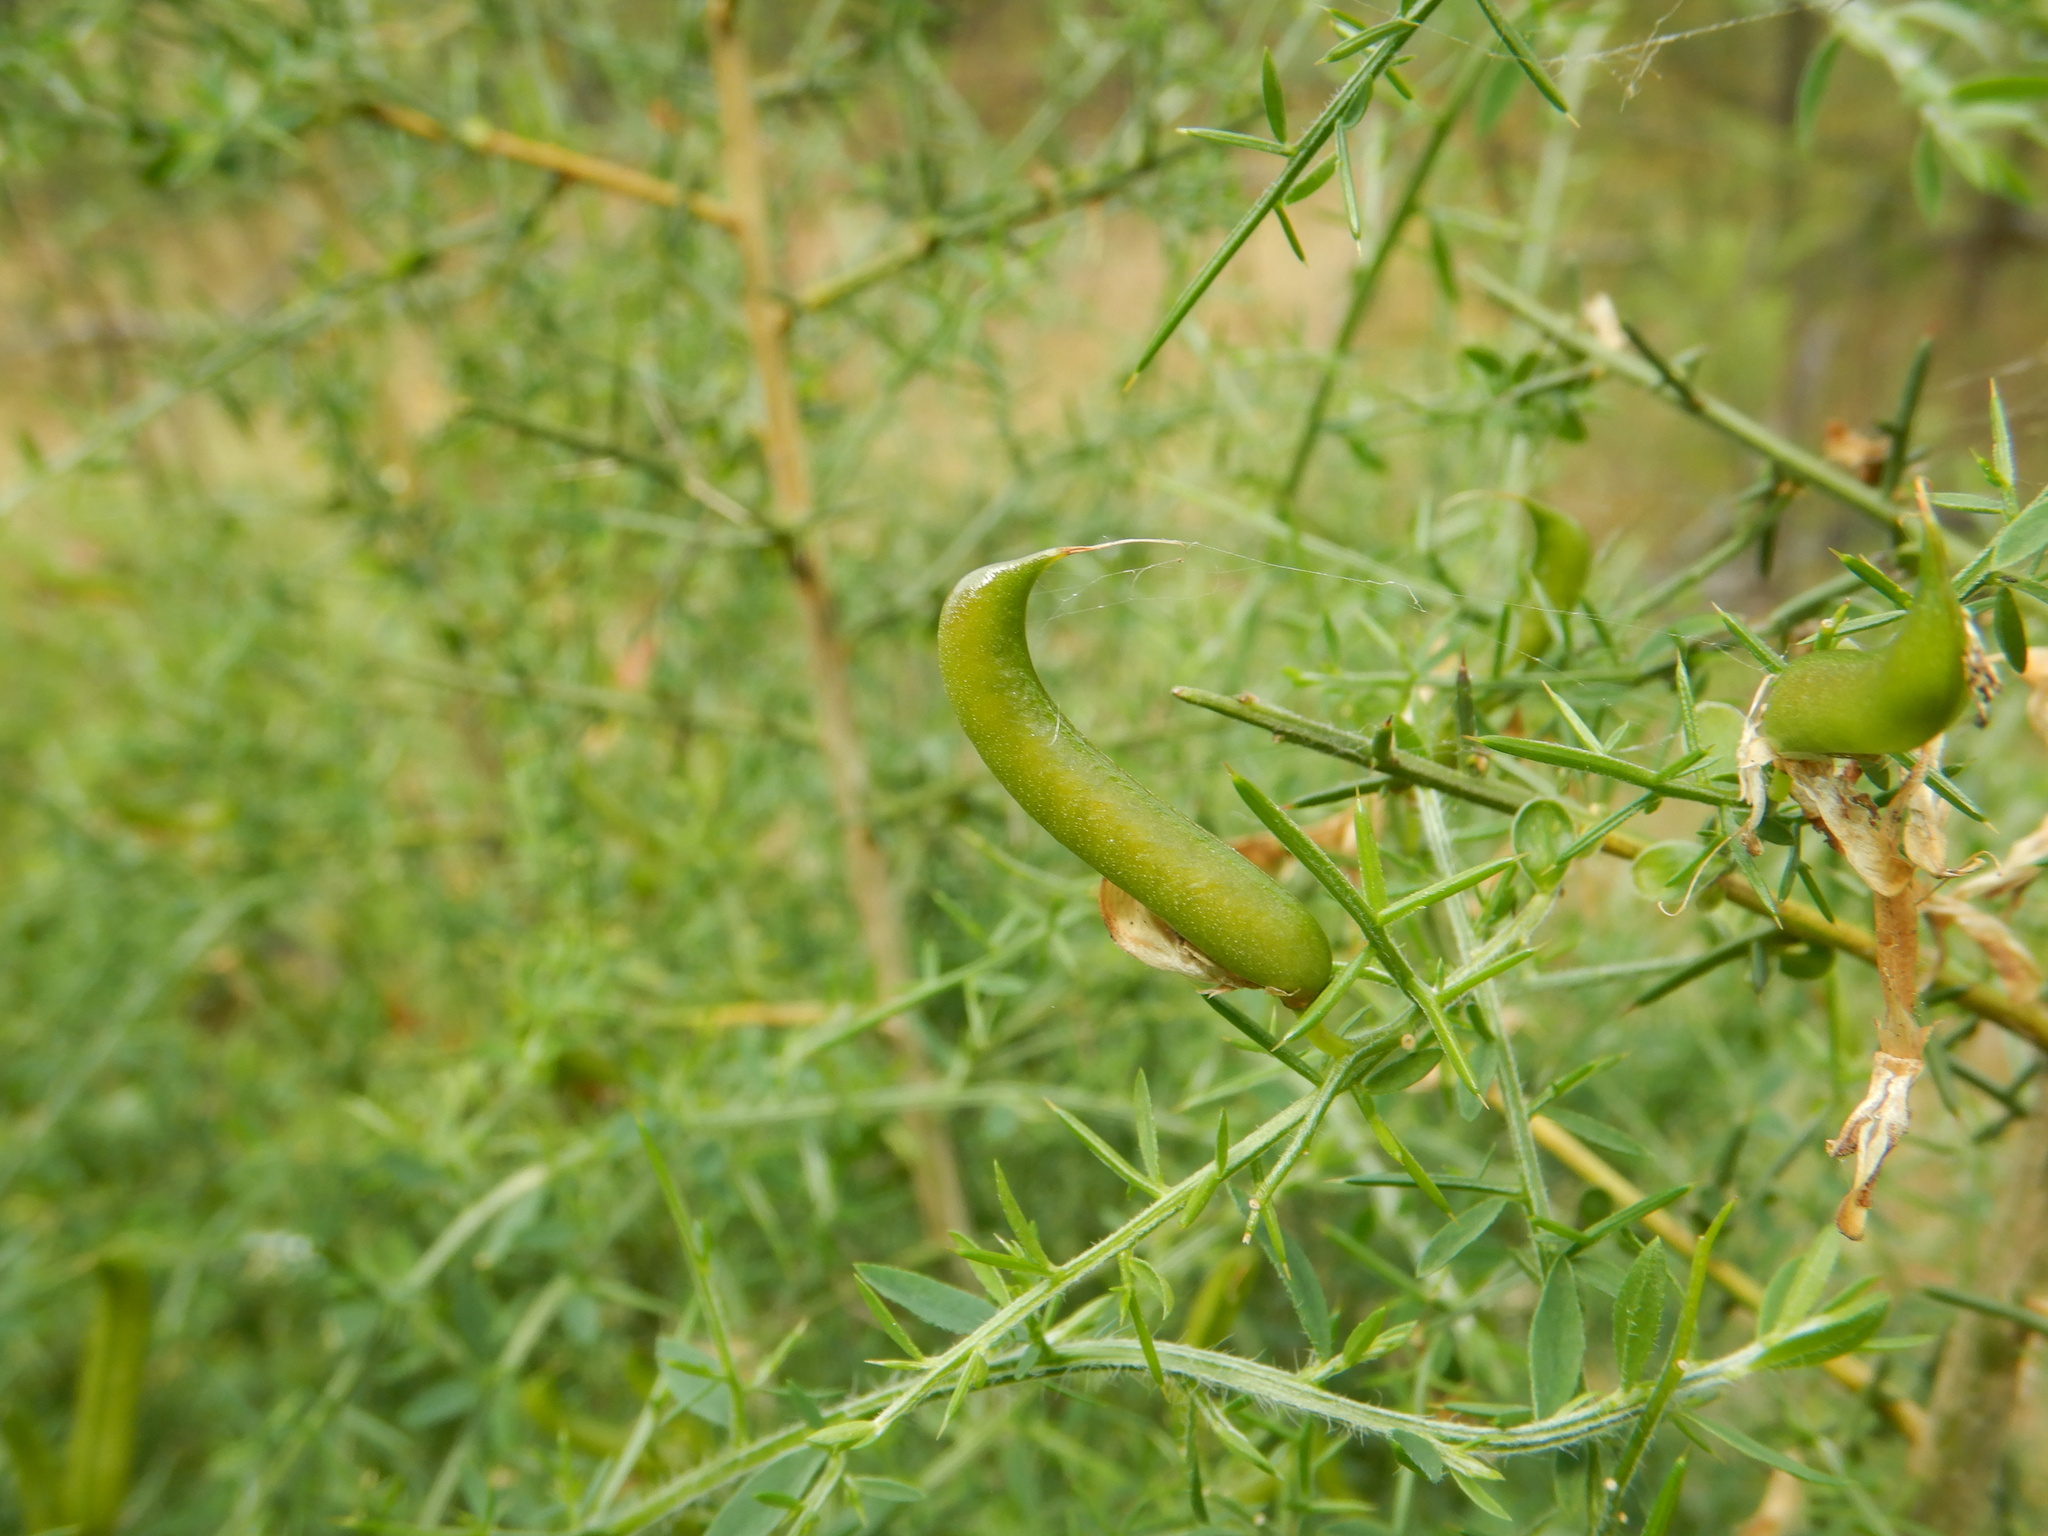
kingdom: Plantae
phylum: Tracheophyta
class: Magnoliopsida
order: Fabales
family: Fabaceae
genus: Genista
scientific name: Genista falcata
